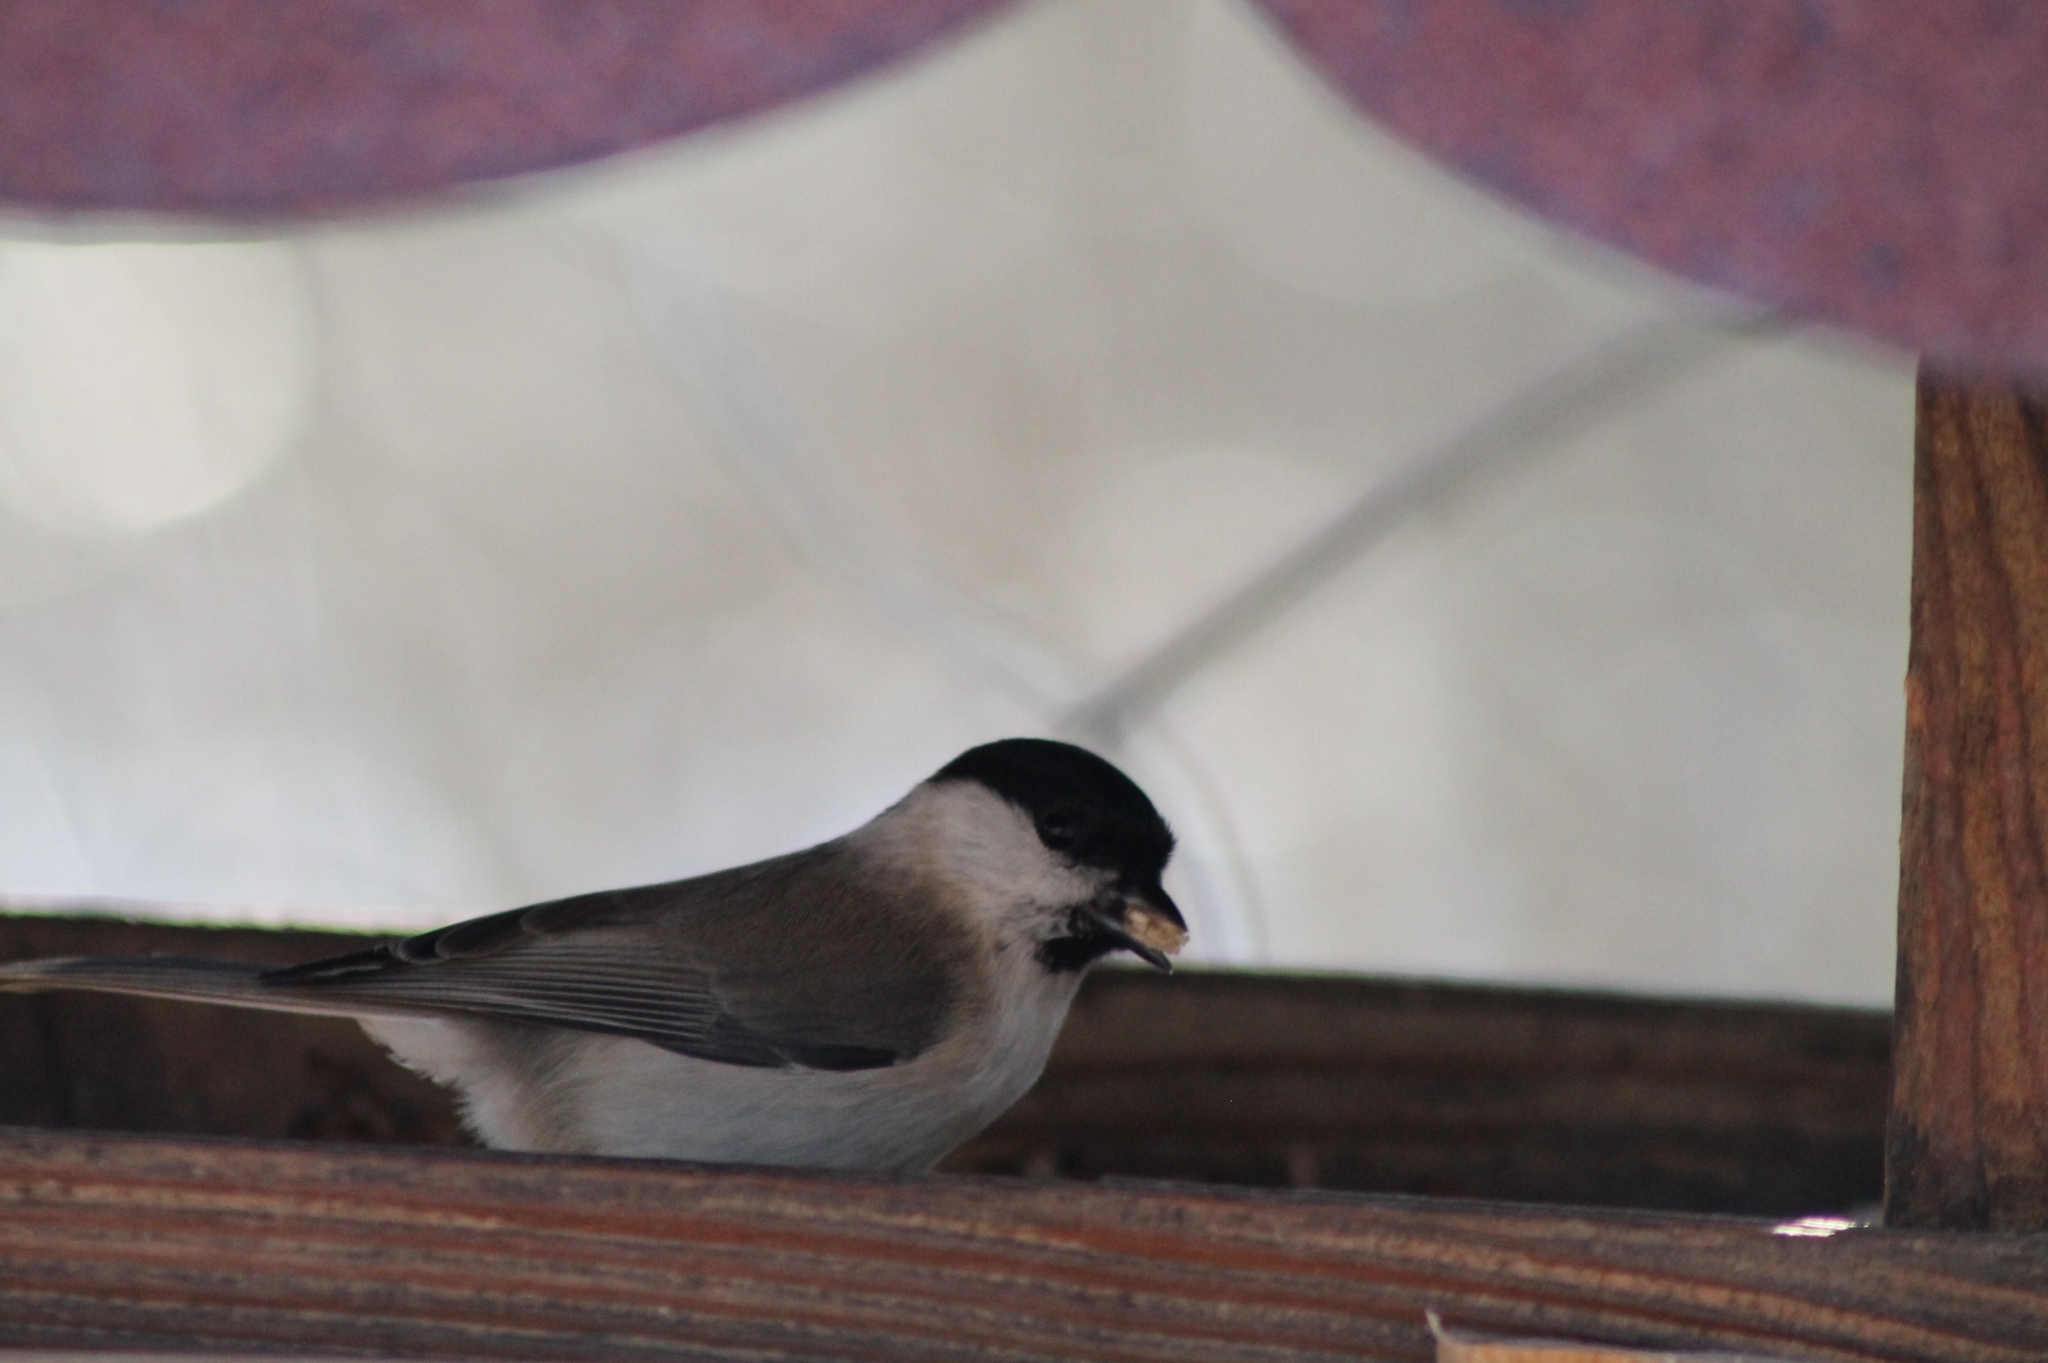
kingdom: Animalia
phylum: Chordata
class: Aves
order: Passeriformes
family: Paridae
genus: Poecile
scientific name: Poecile palustris
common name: Marsh tit
